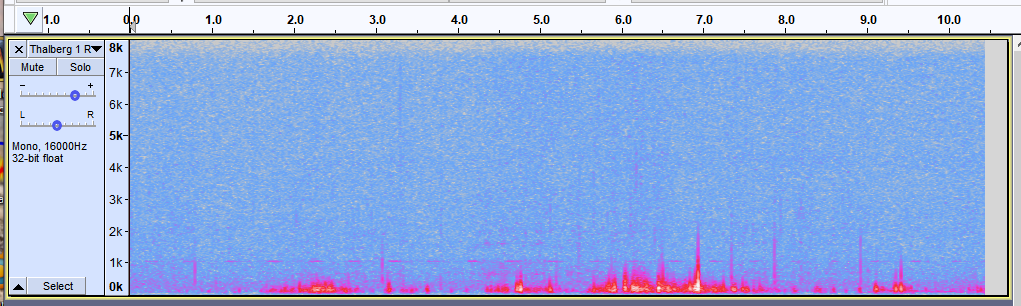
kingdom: Animalia
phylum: Chordata
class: Aves
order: Strigiformes
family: Strigidae
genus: Aegolius
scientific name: Aegolius acadicus
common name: Northern saw-whet owl
